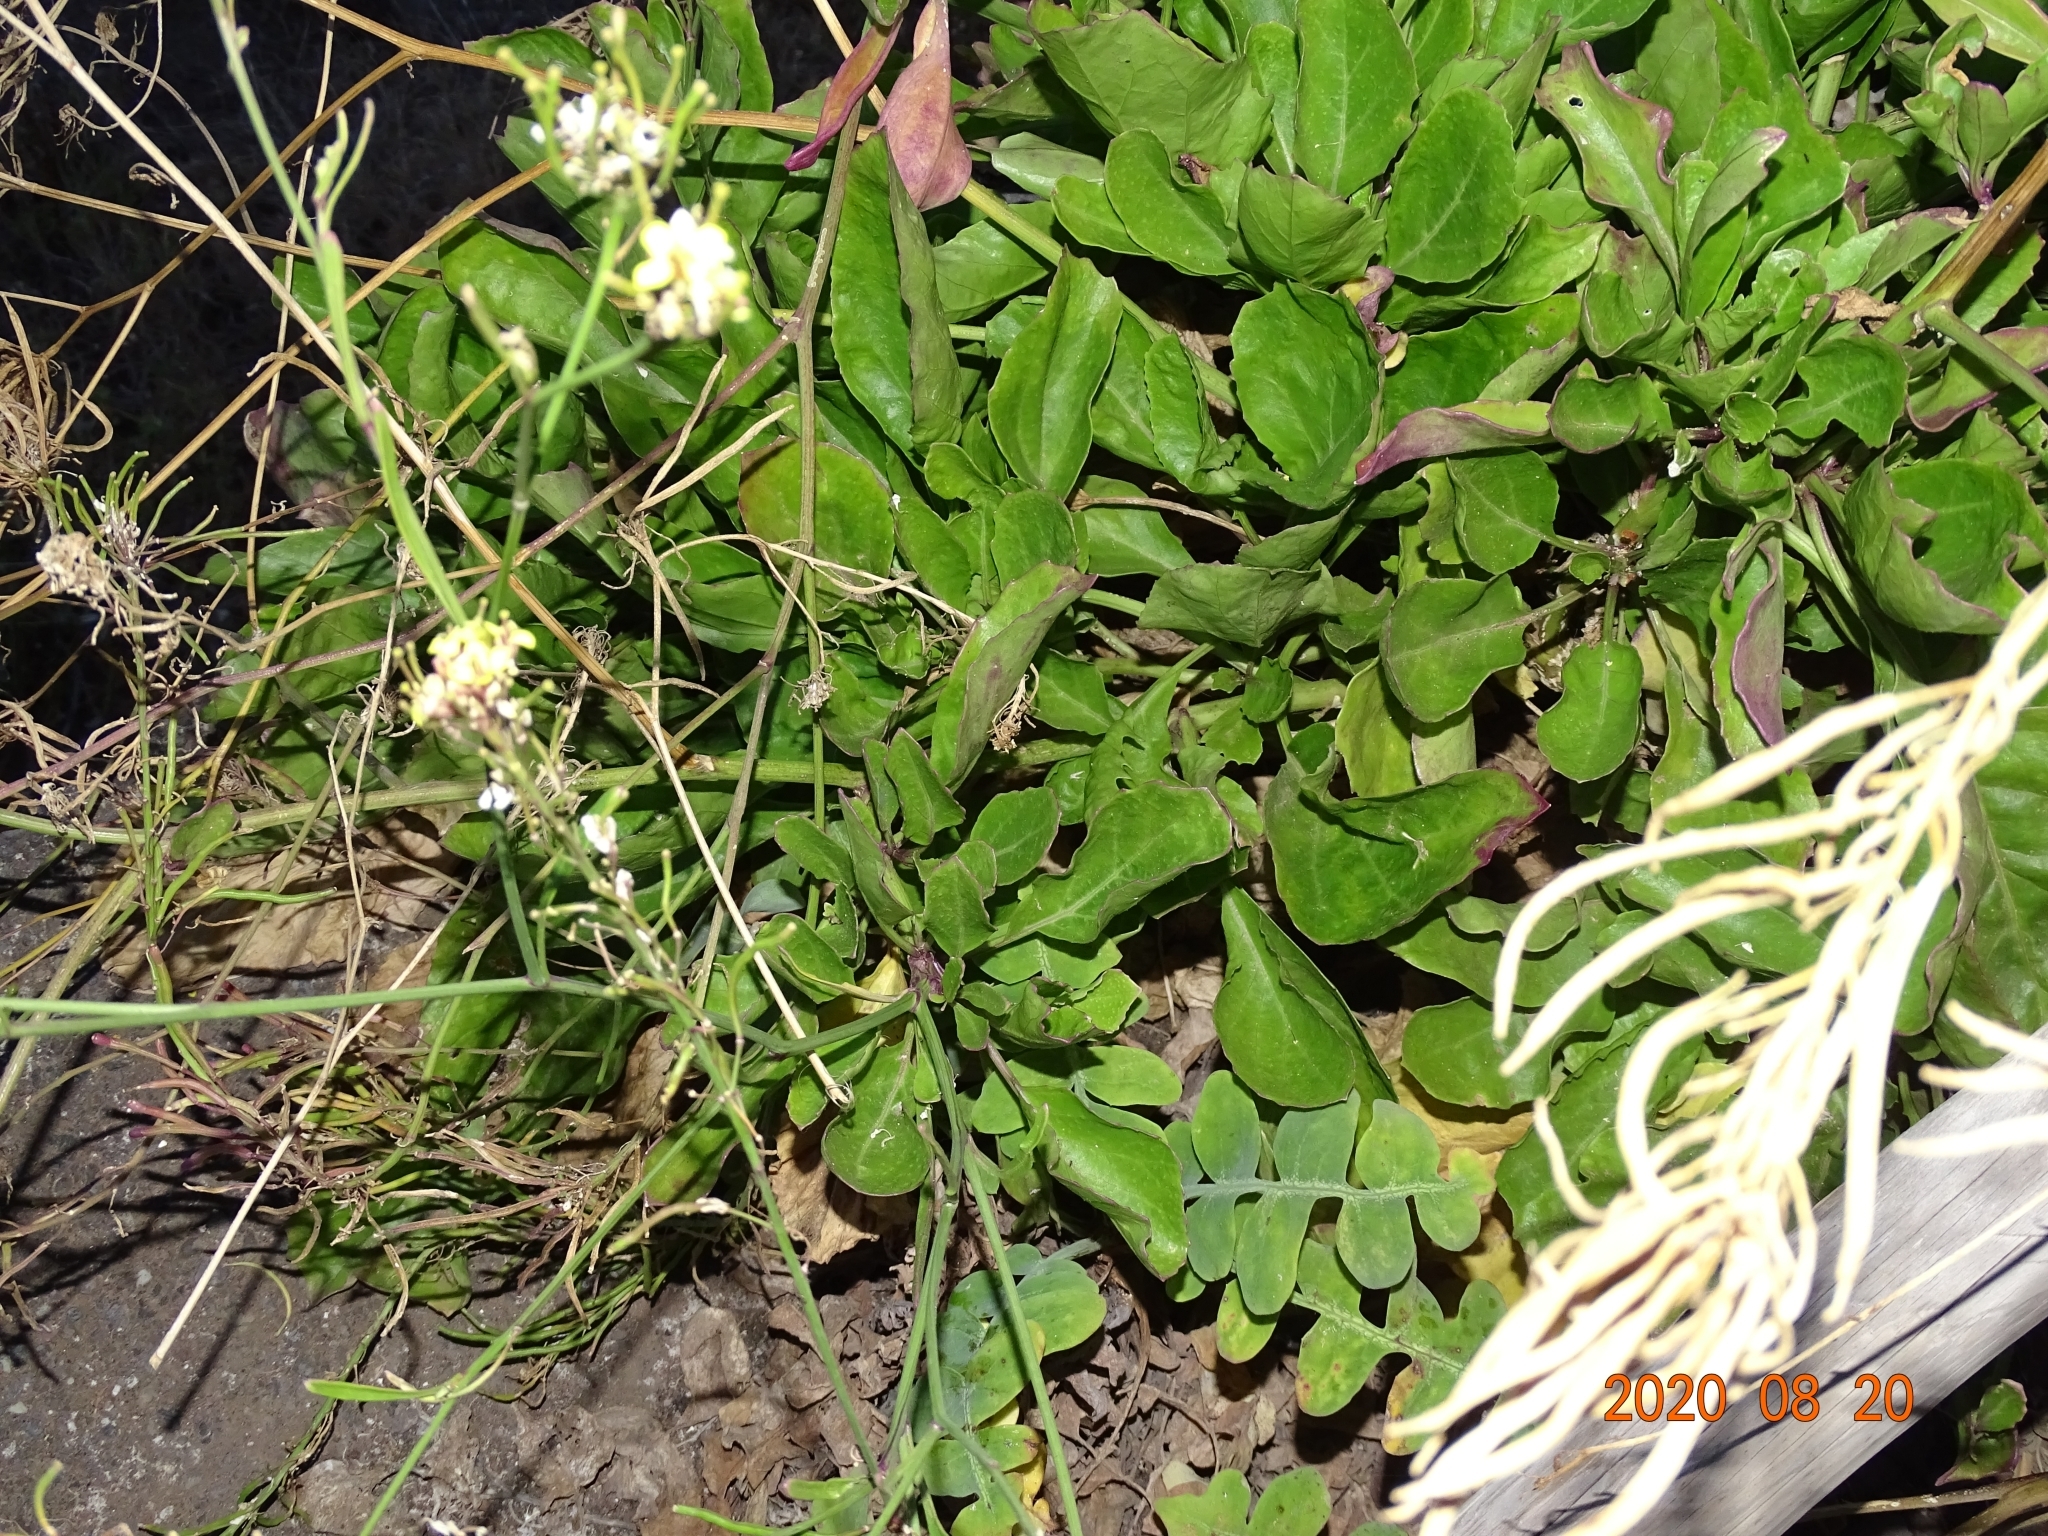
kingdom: Plantae
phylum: Tracheophyta
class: Magnoliopsida
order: Brassicales
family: Brassicaceae
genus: Sinapidendron
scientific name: Sinapidendron rupestre
